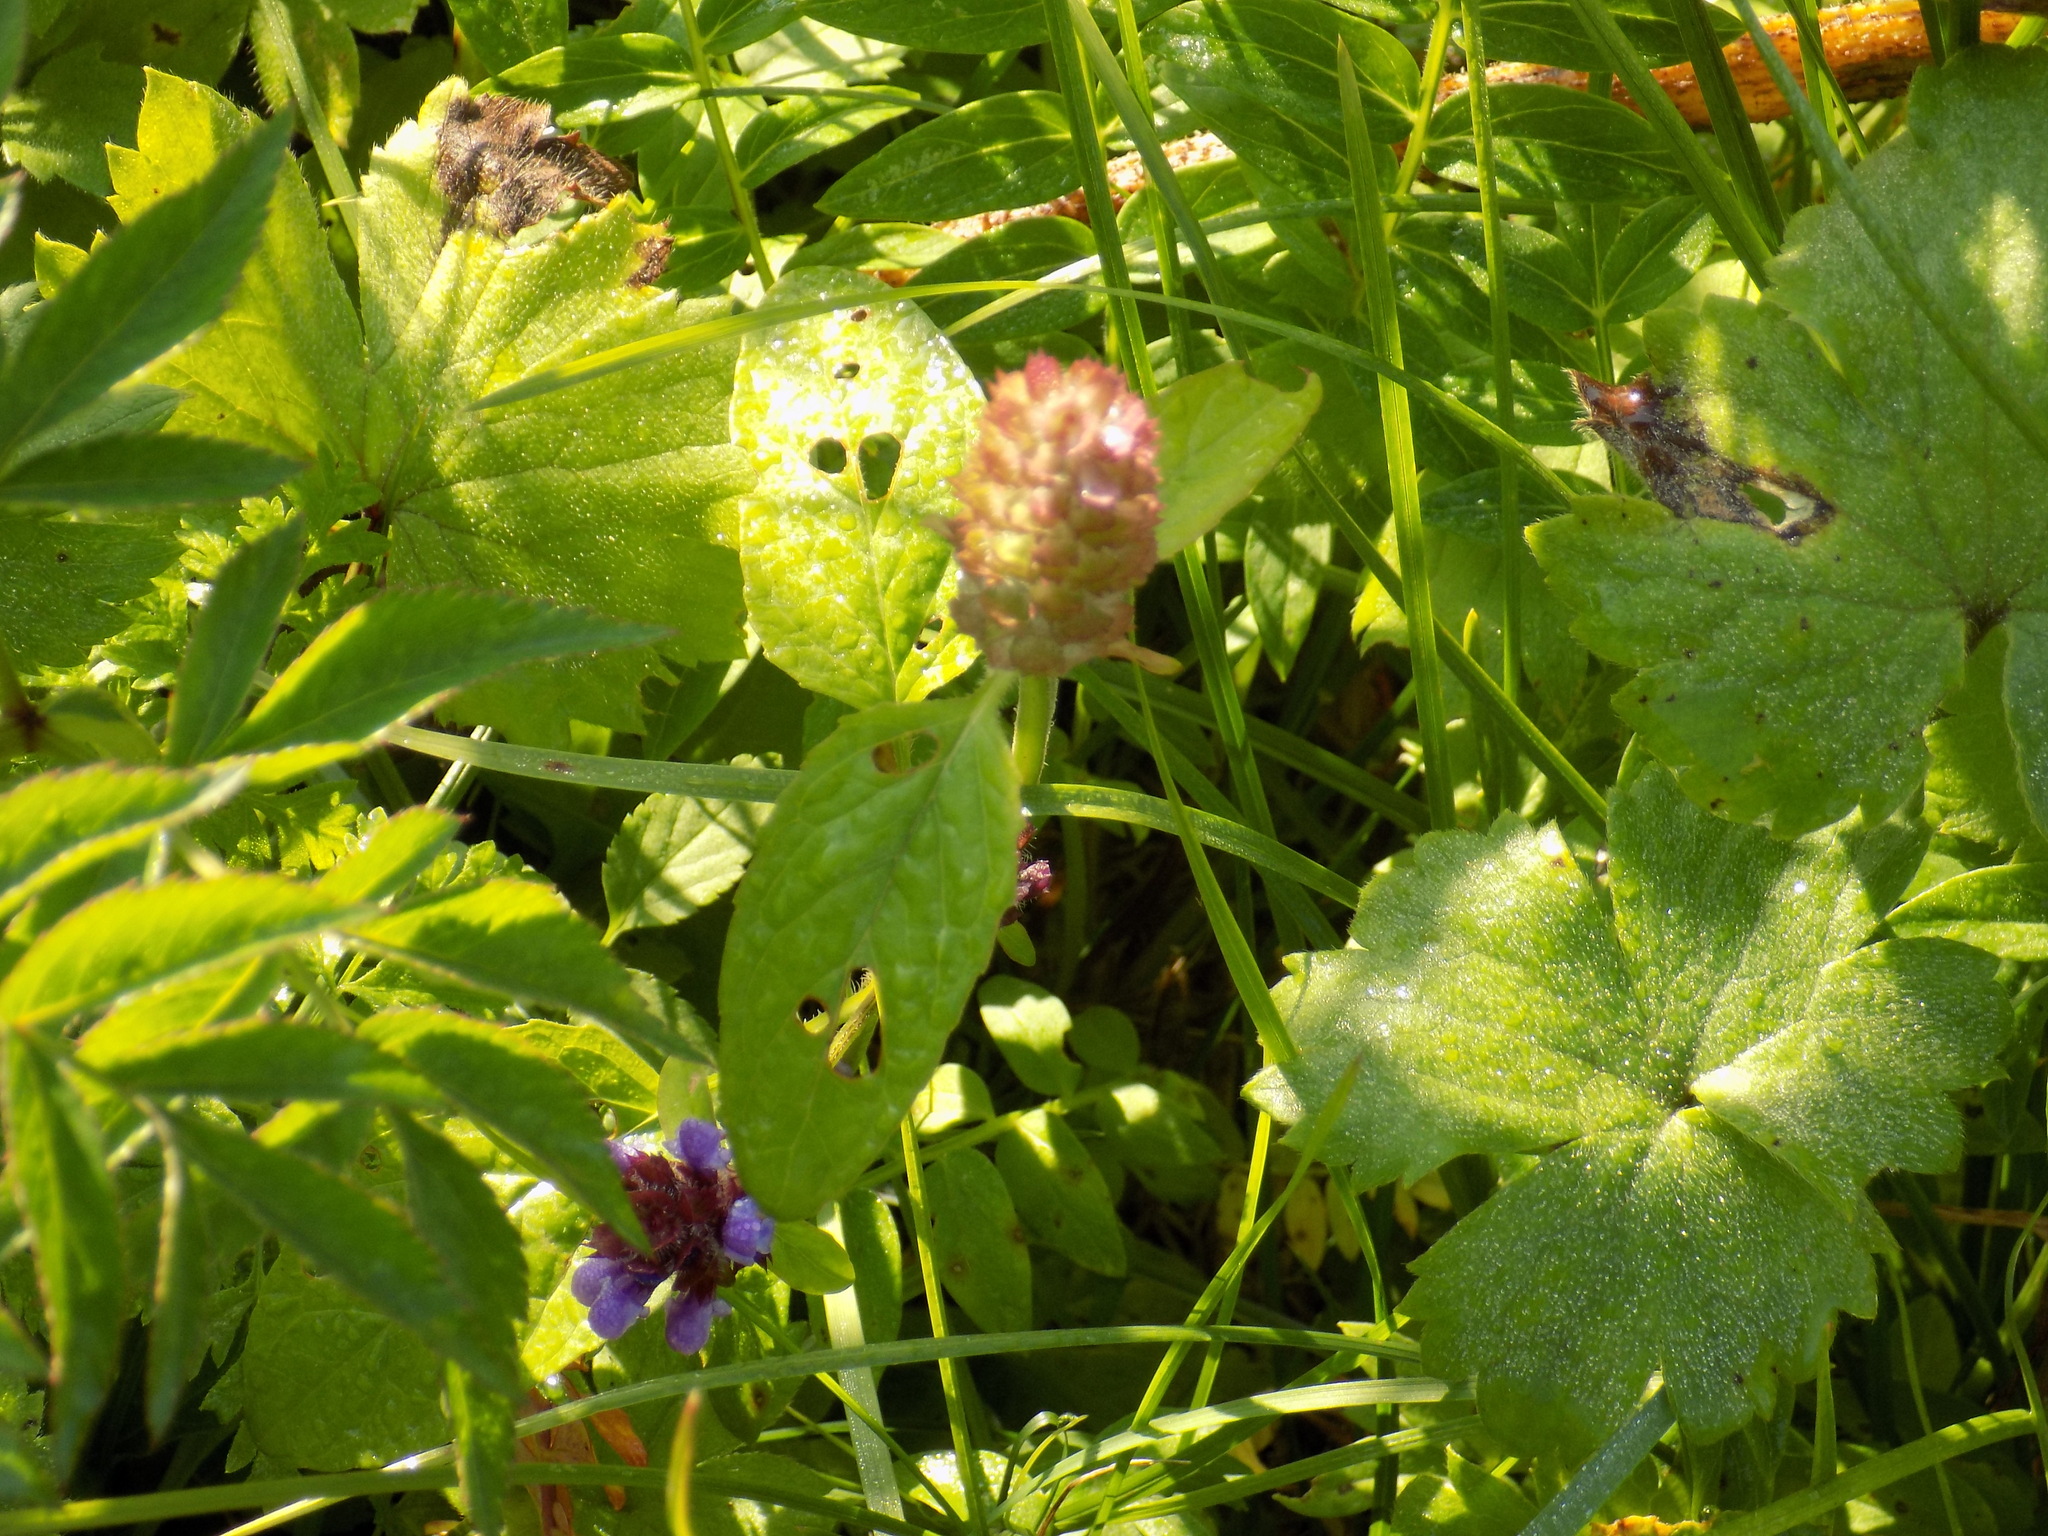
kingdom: Plantae
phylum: Tracheophyta
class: Magnoliopsida
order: Lamiales
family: Lamiaceae
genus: Prunella
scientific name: Prunella vulgaris
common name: Heal-all
